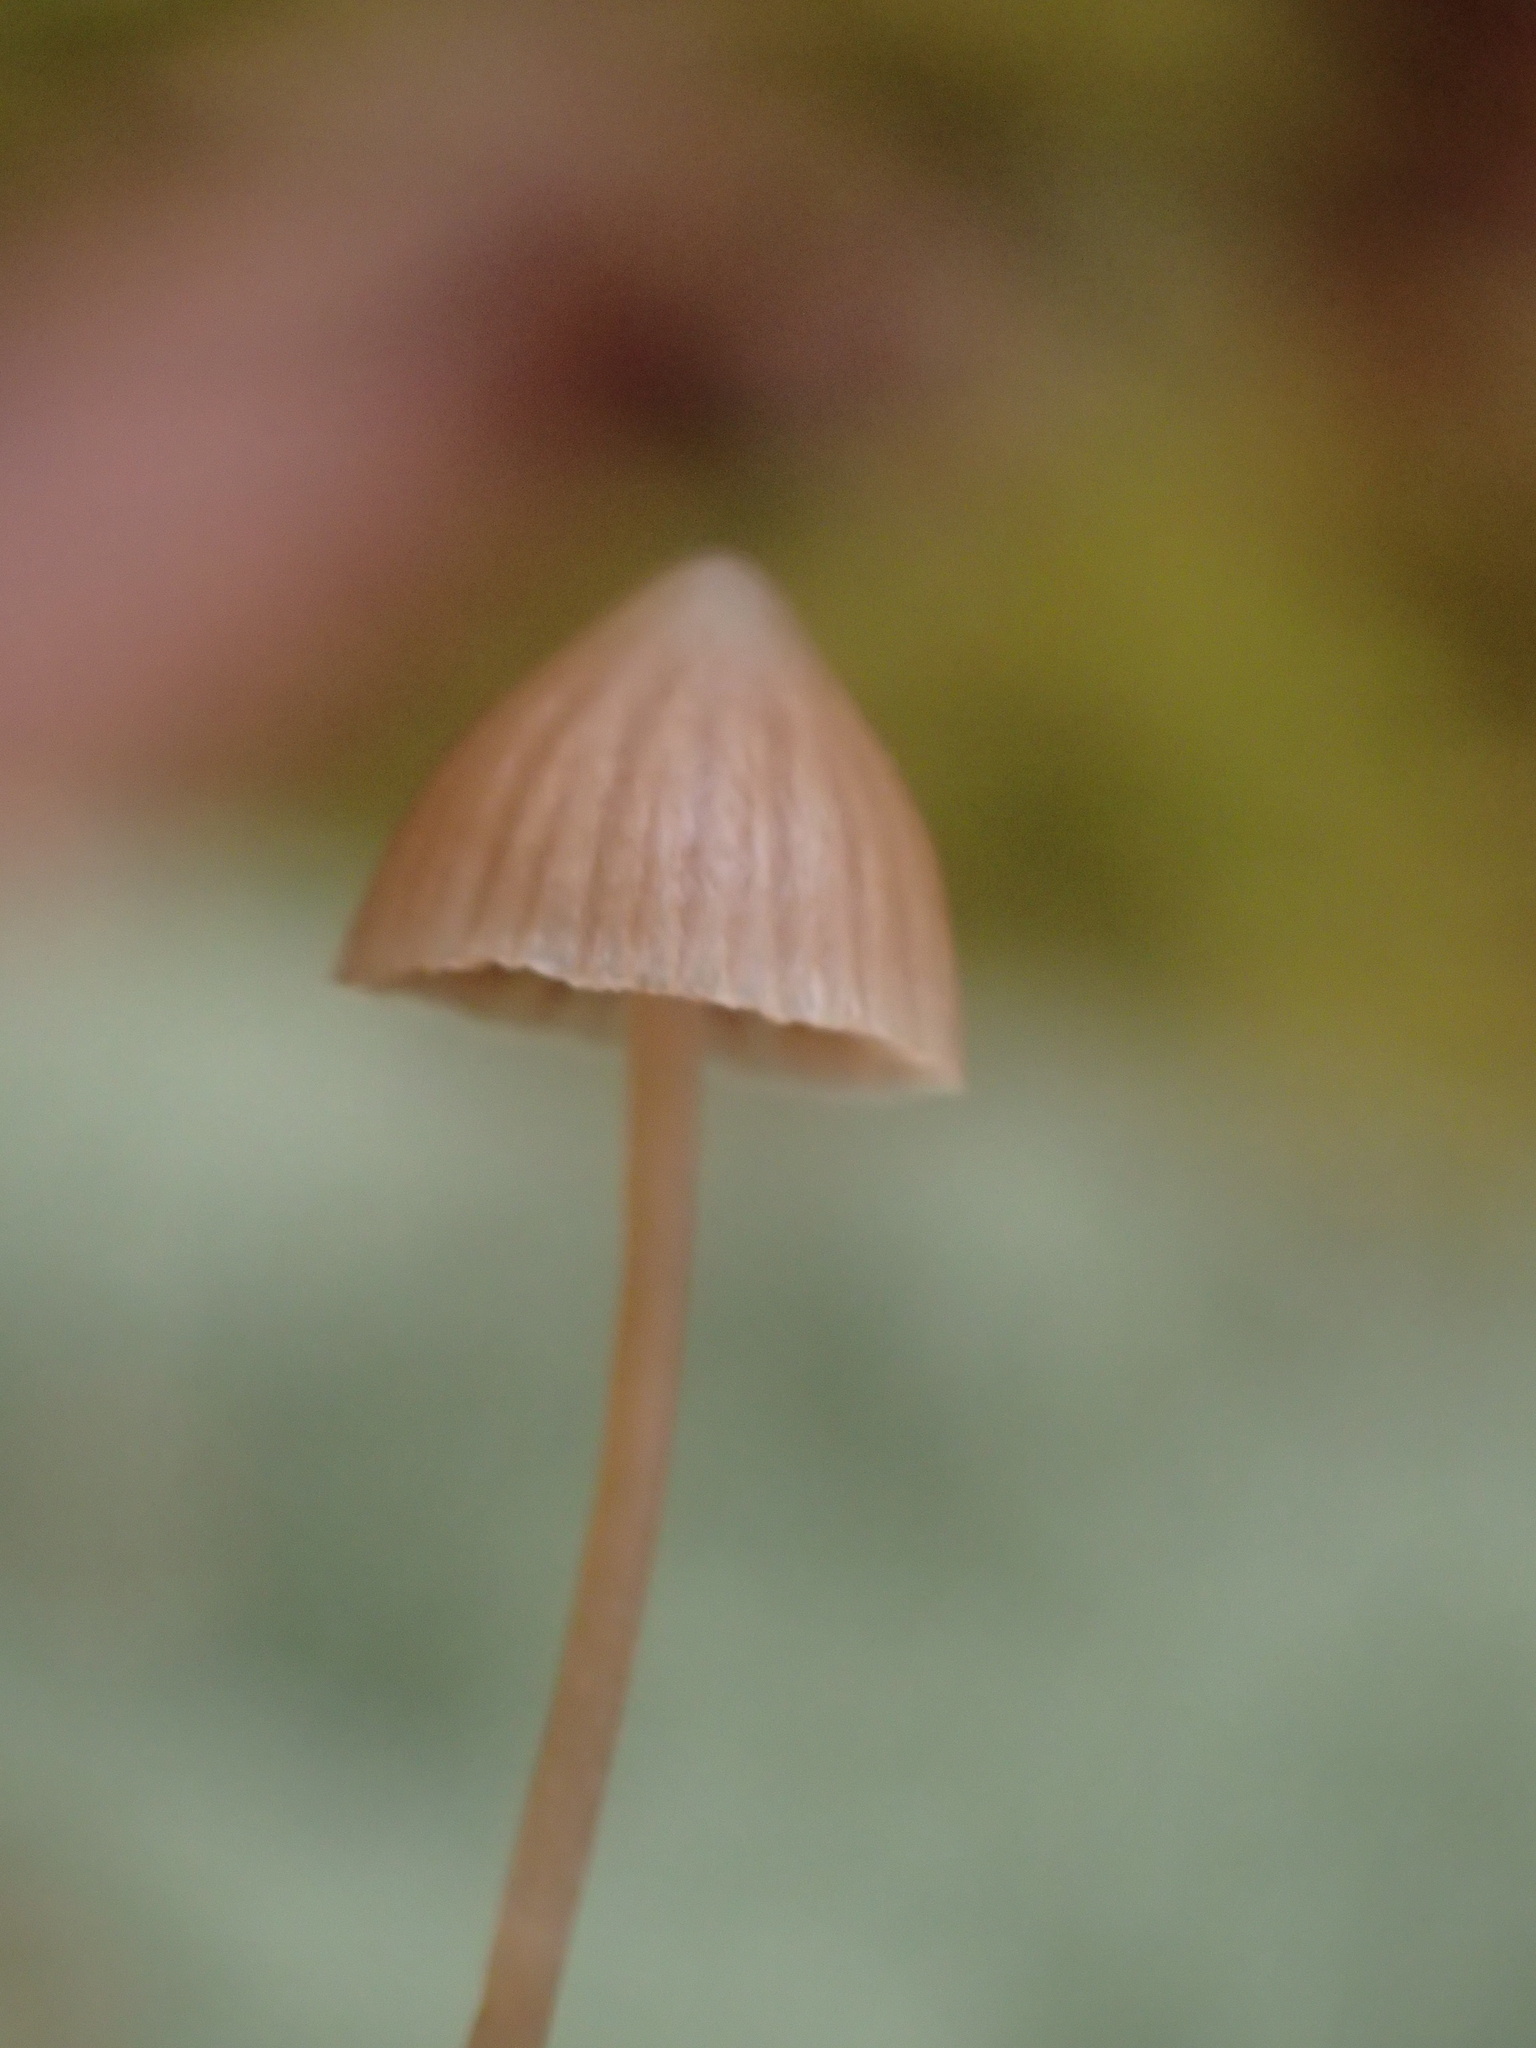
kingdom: Fungi
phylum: Basidiomycota
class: Agaricomycetes
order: Agaricales
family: Hymenogastraceae
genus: Galerina
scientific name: Galerina hypnorum
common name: Moss bell
